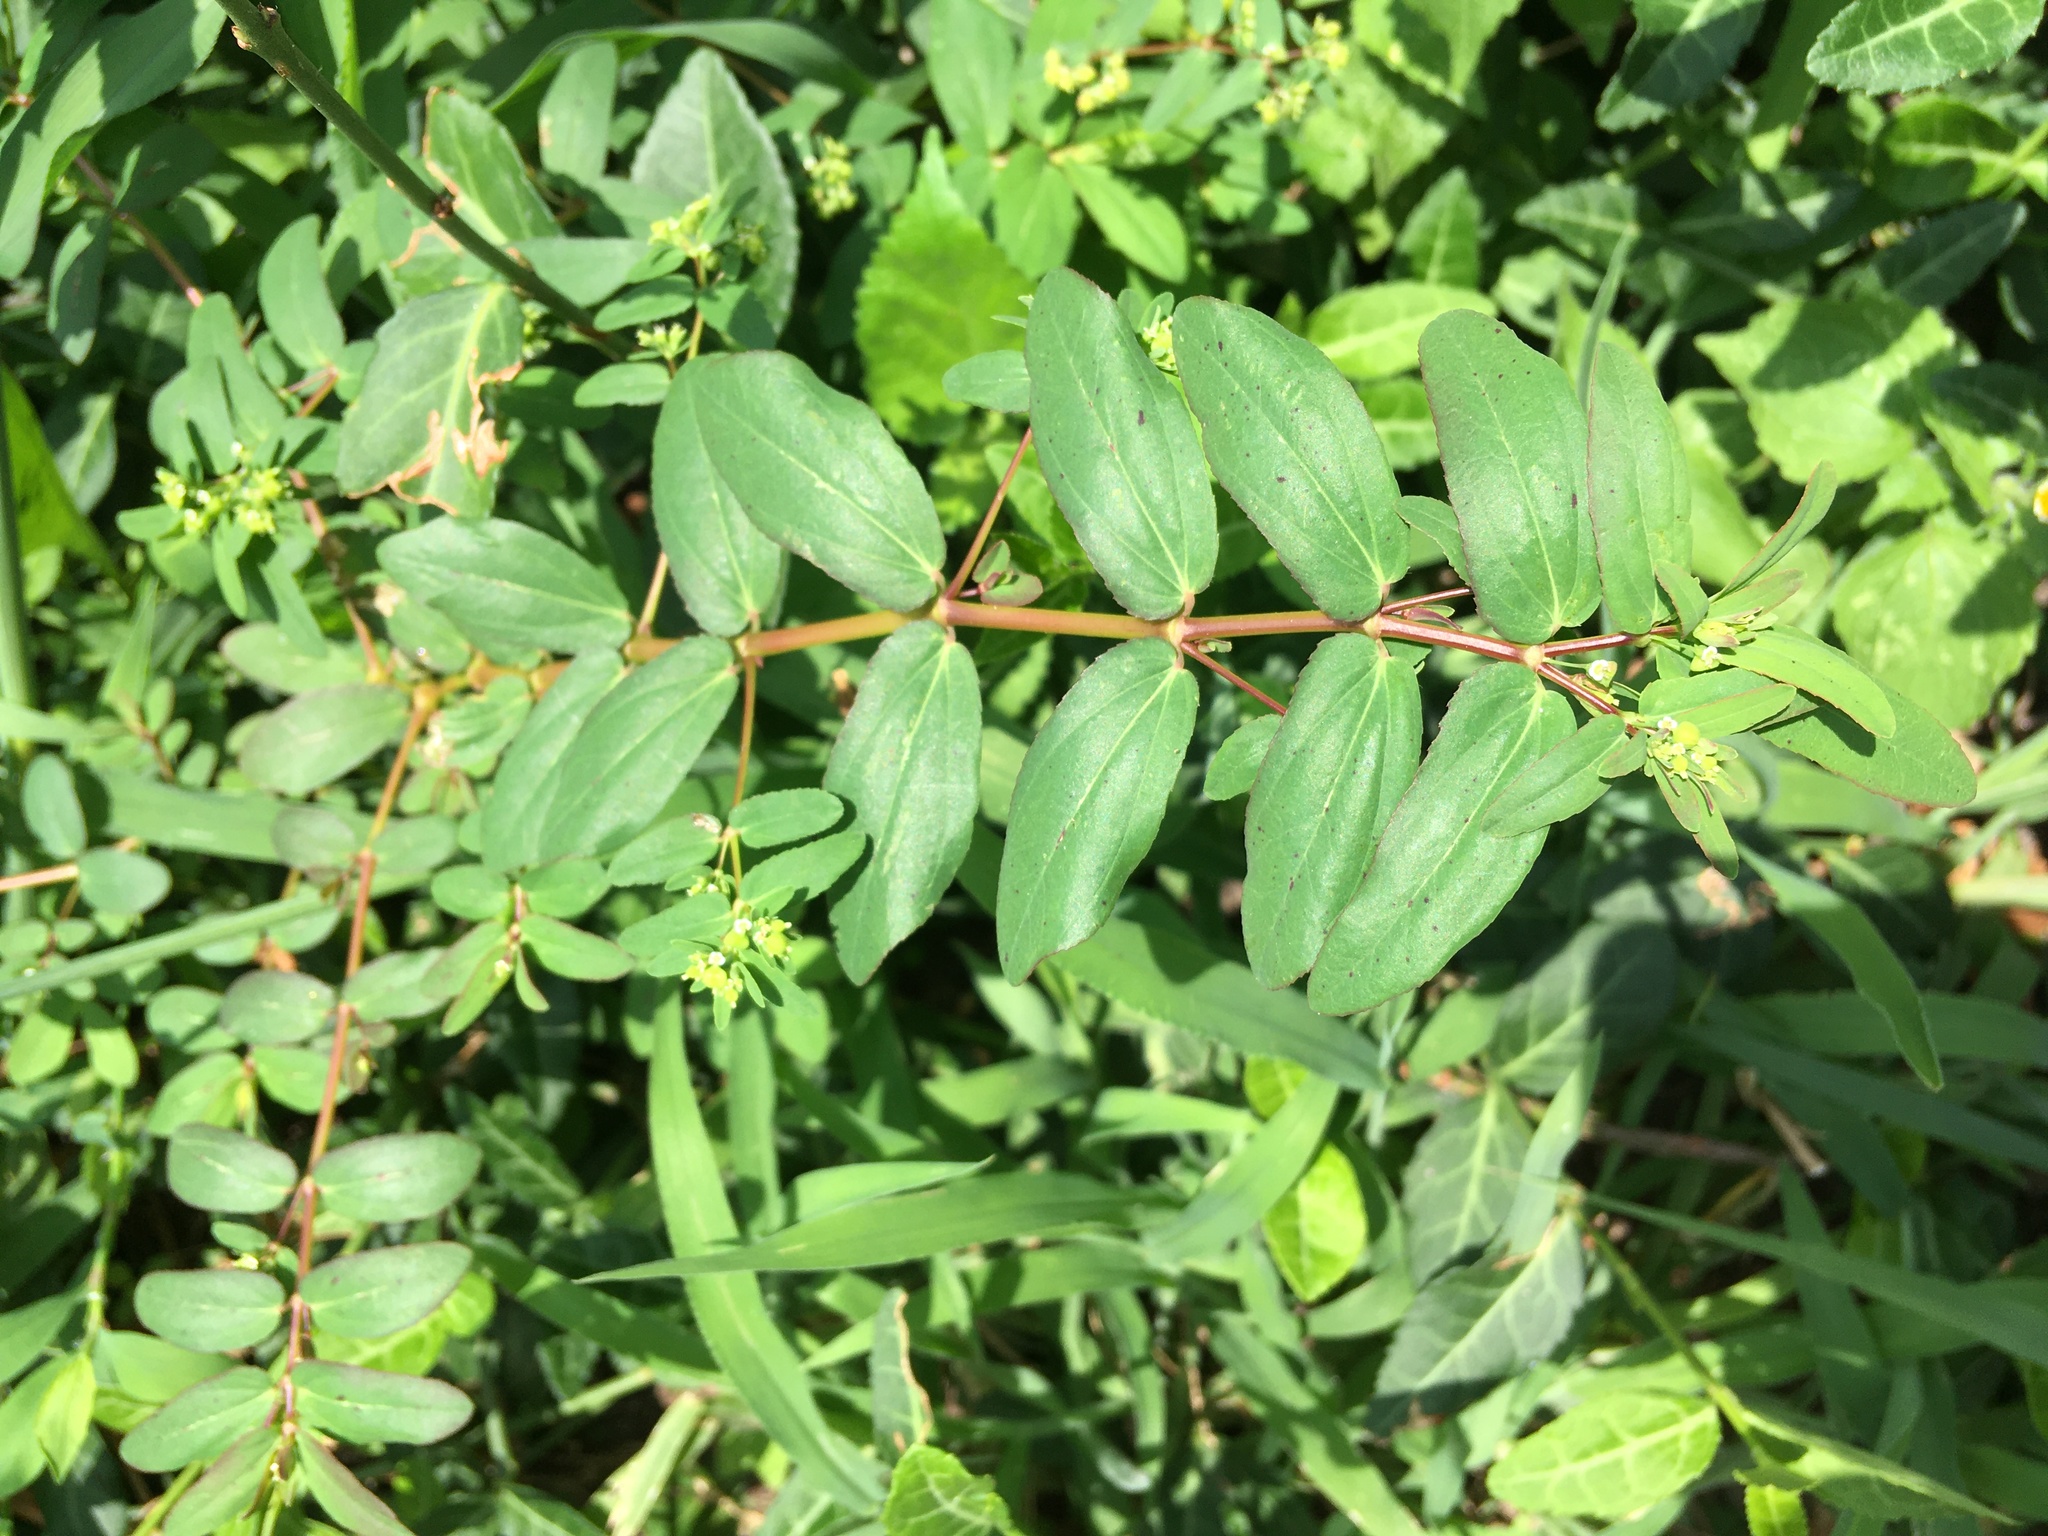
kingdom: Plantae
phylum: Tracheophyta
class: Magnoliopsida
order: Malpighiales
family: Euphorbiaceae
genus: Euphorbia
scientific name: Euphorbia hyssopifolia
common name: Hyssopleaf sandmat
